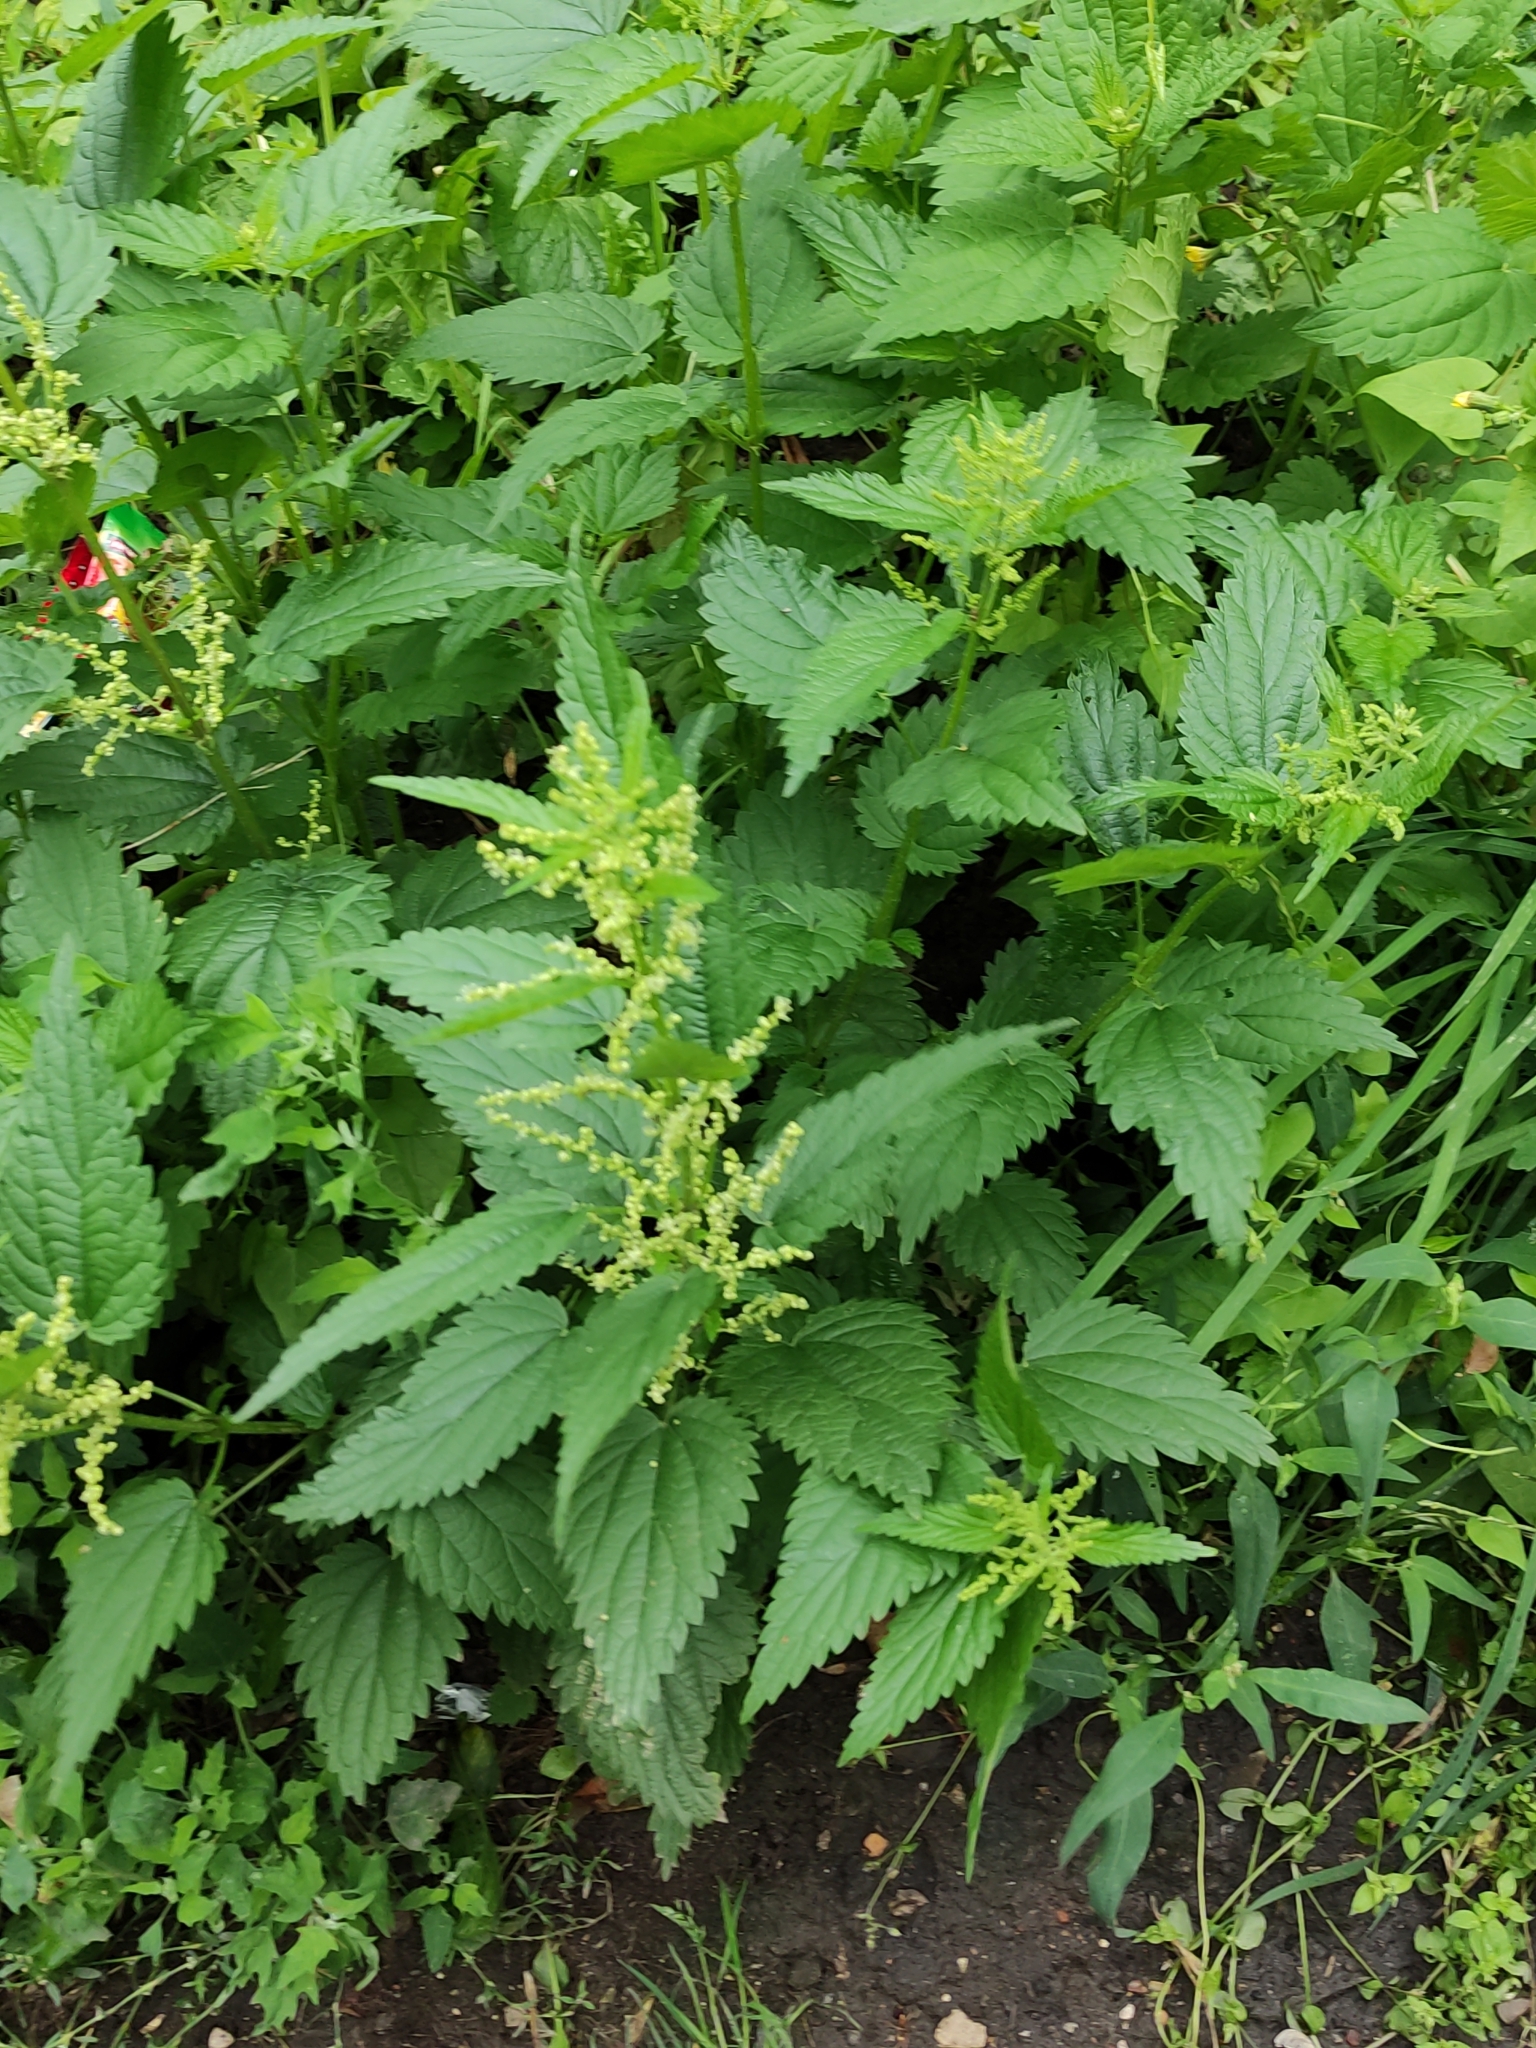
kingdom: Plantae
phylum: Tracheophyta
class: Magnoliopsida
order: Rosales
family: Urticaceae
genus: Urtica
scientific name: Urtica dioica
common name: Common nettle
